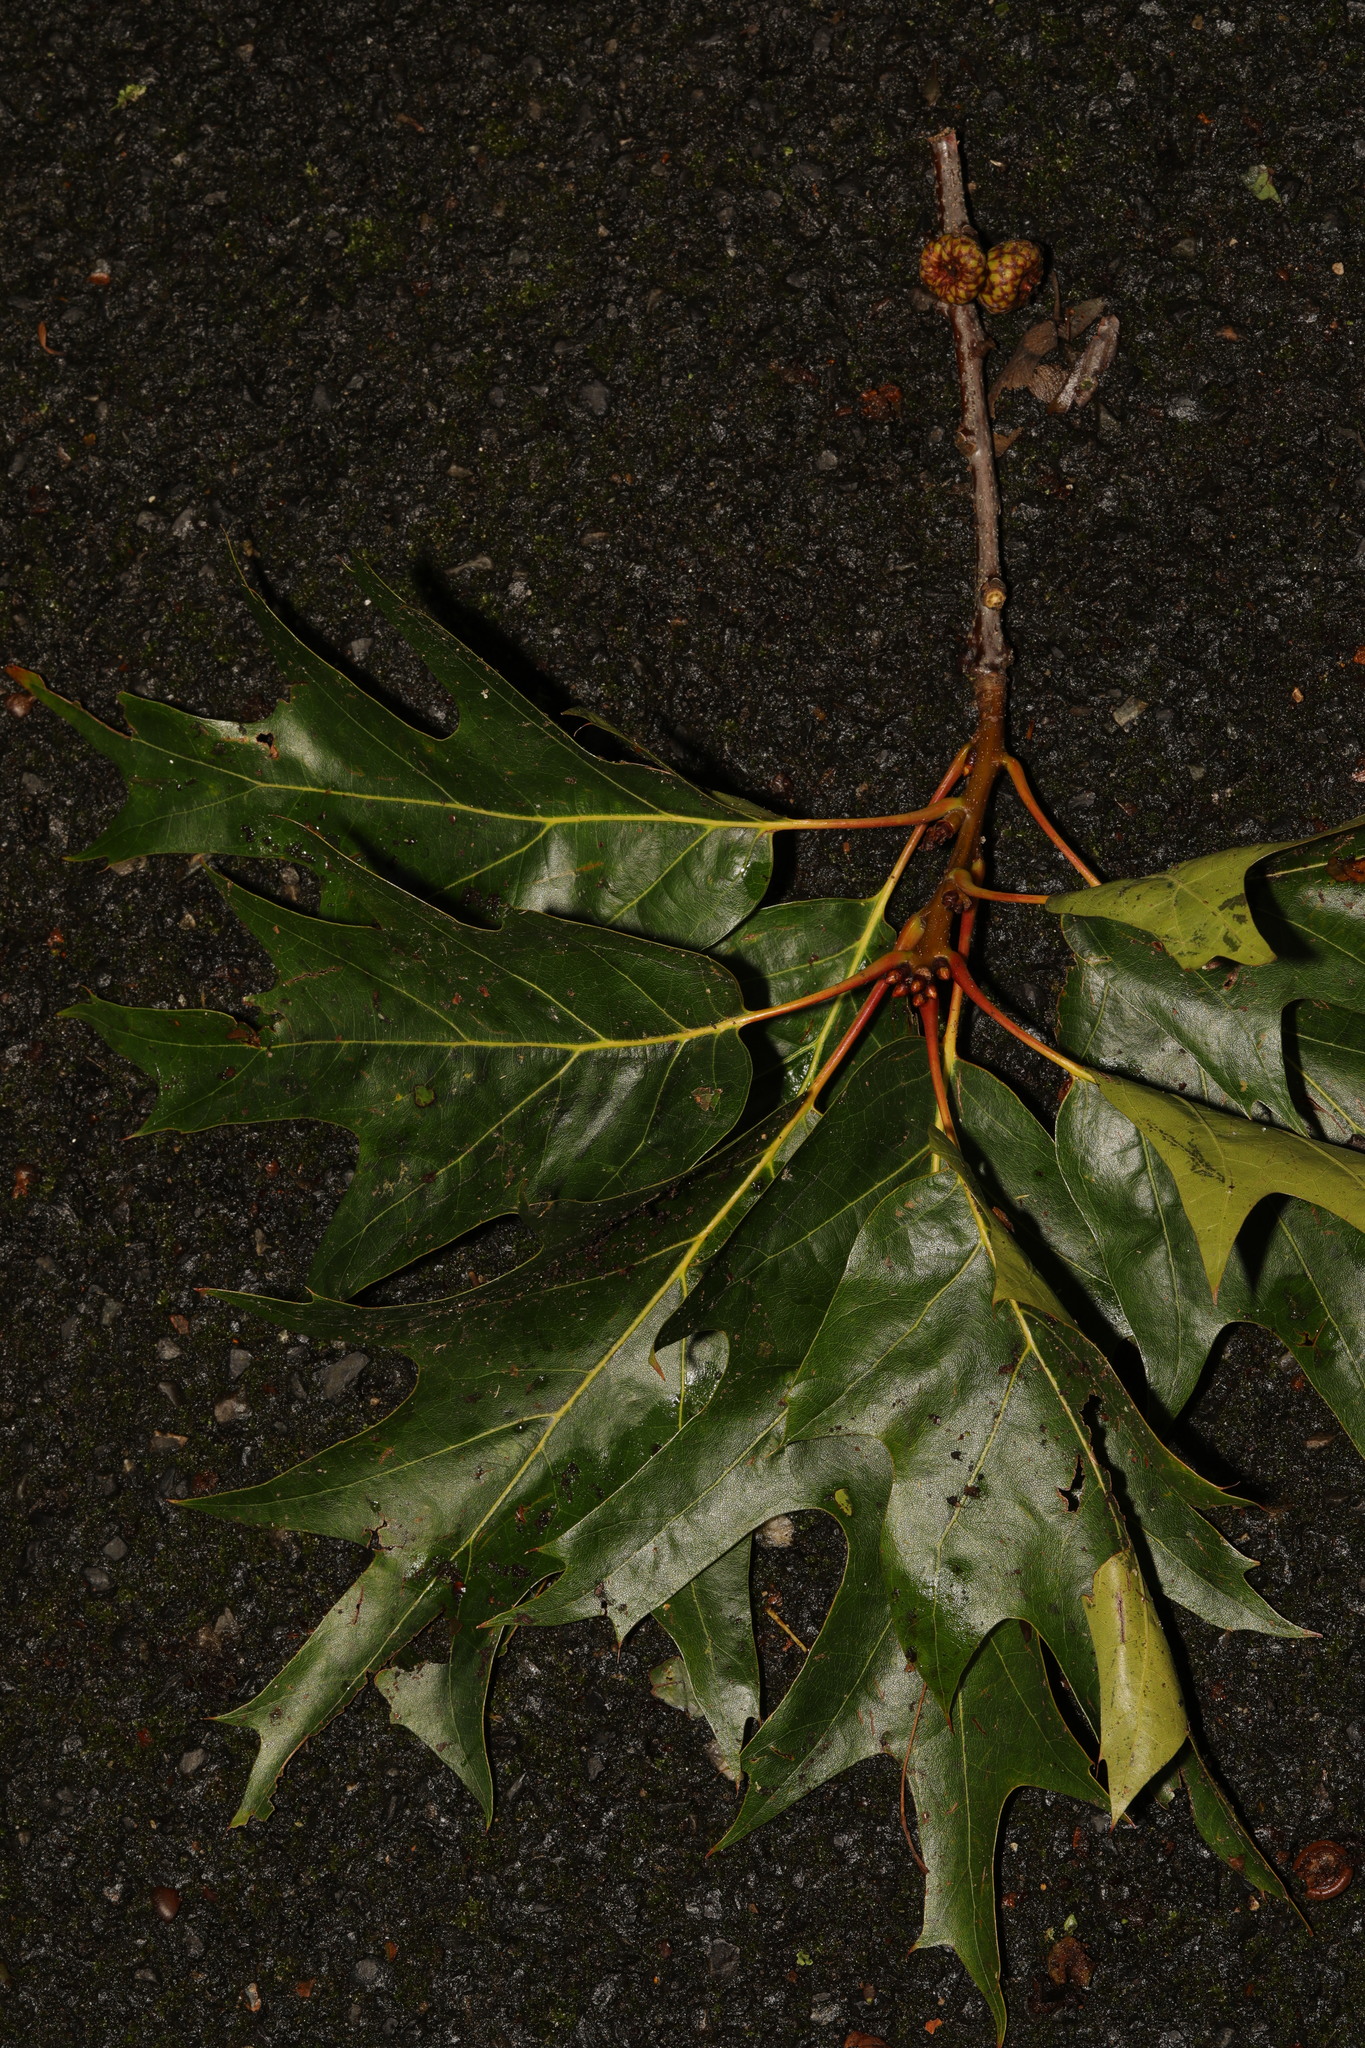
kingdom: Plantae
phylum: Tracheophyta
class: Magnoliopsida
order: Fagales
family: Fagaceae
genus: Quercus
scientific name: Quercus rubra
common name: Red oak
